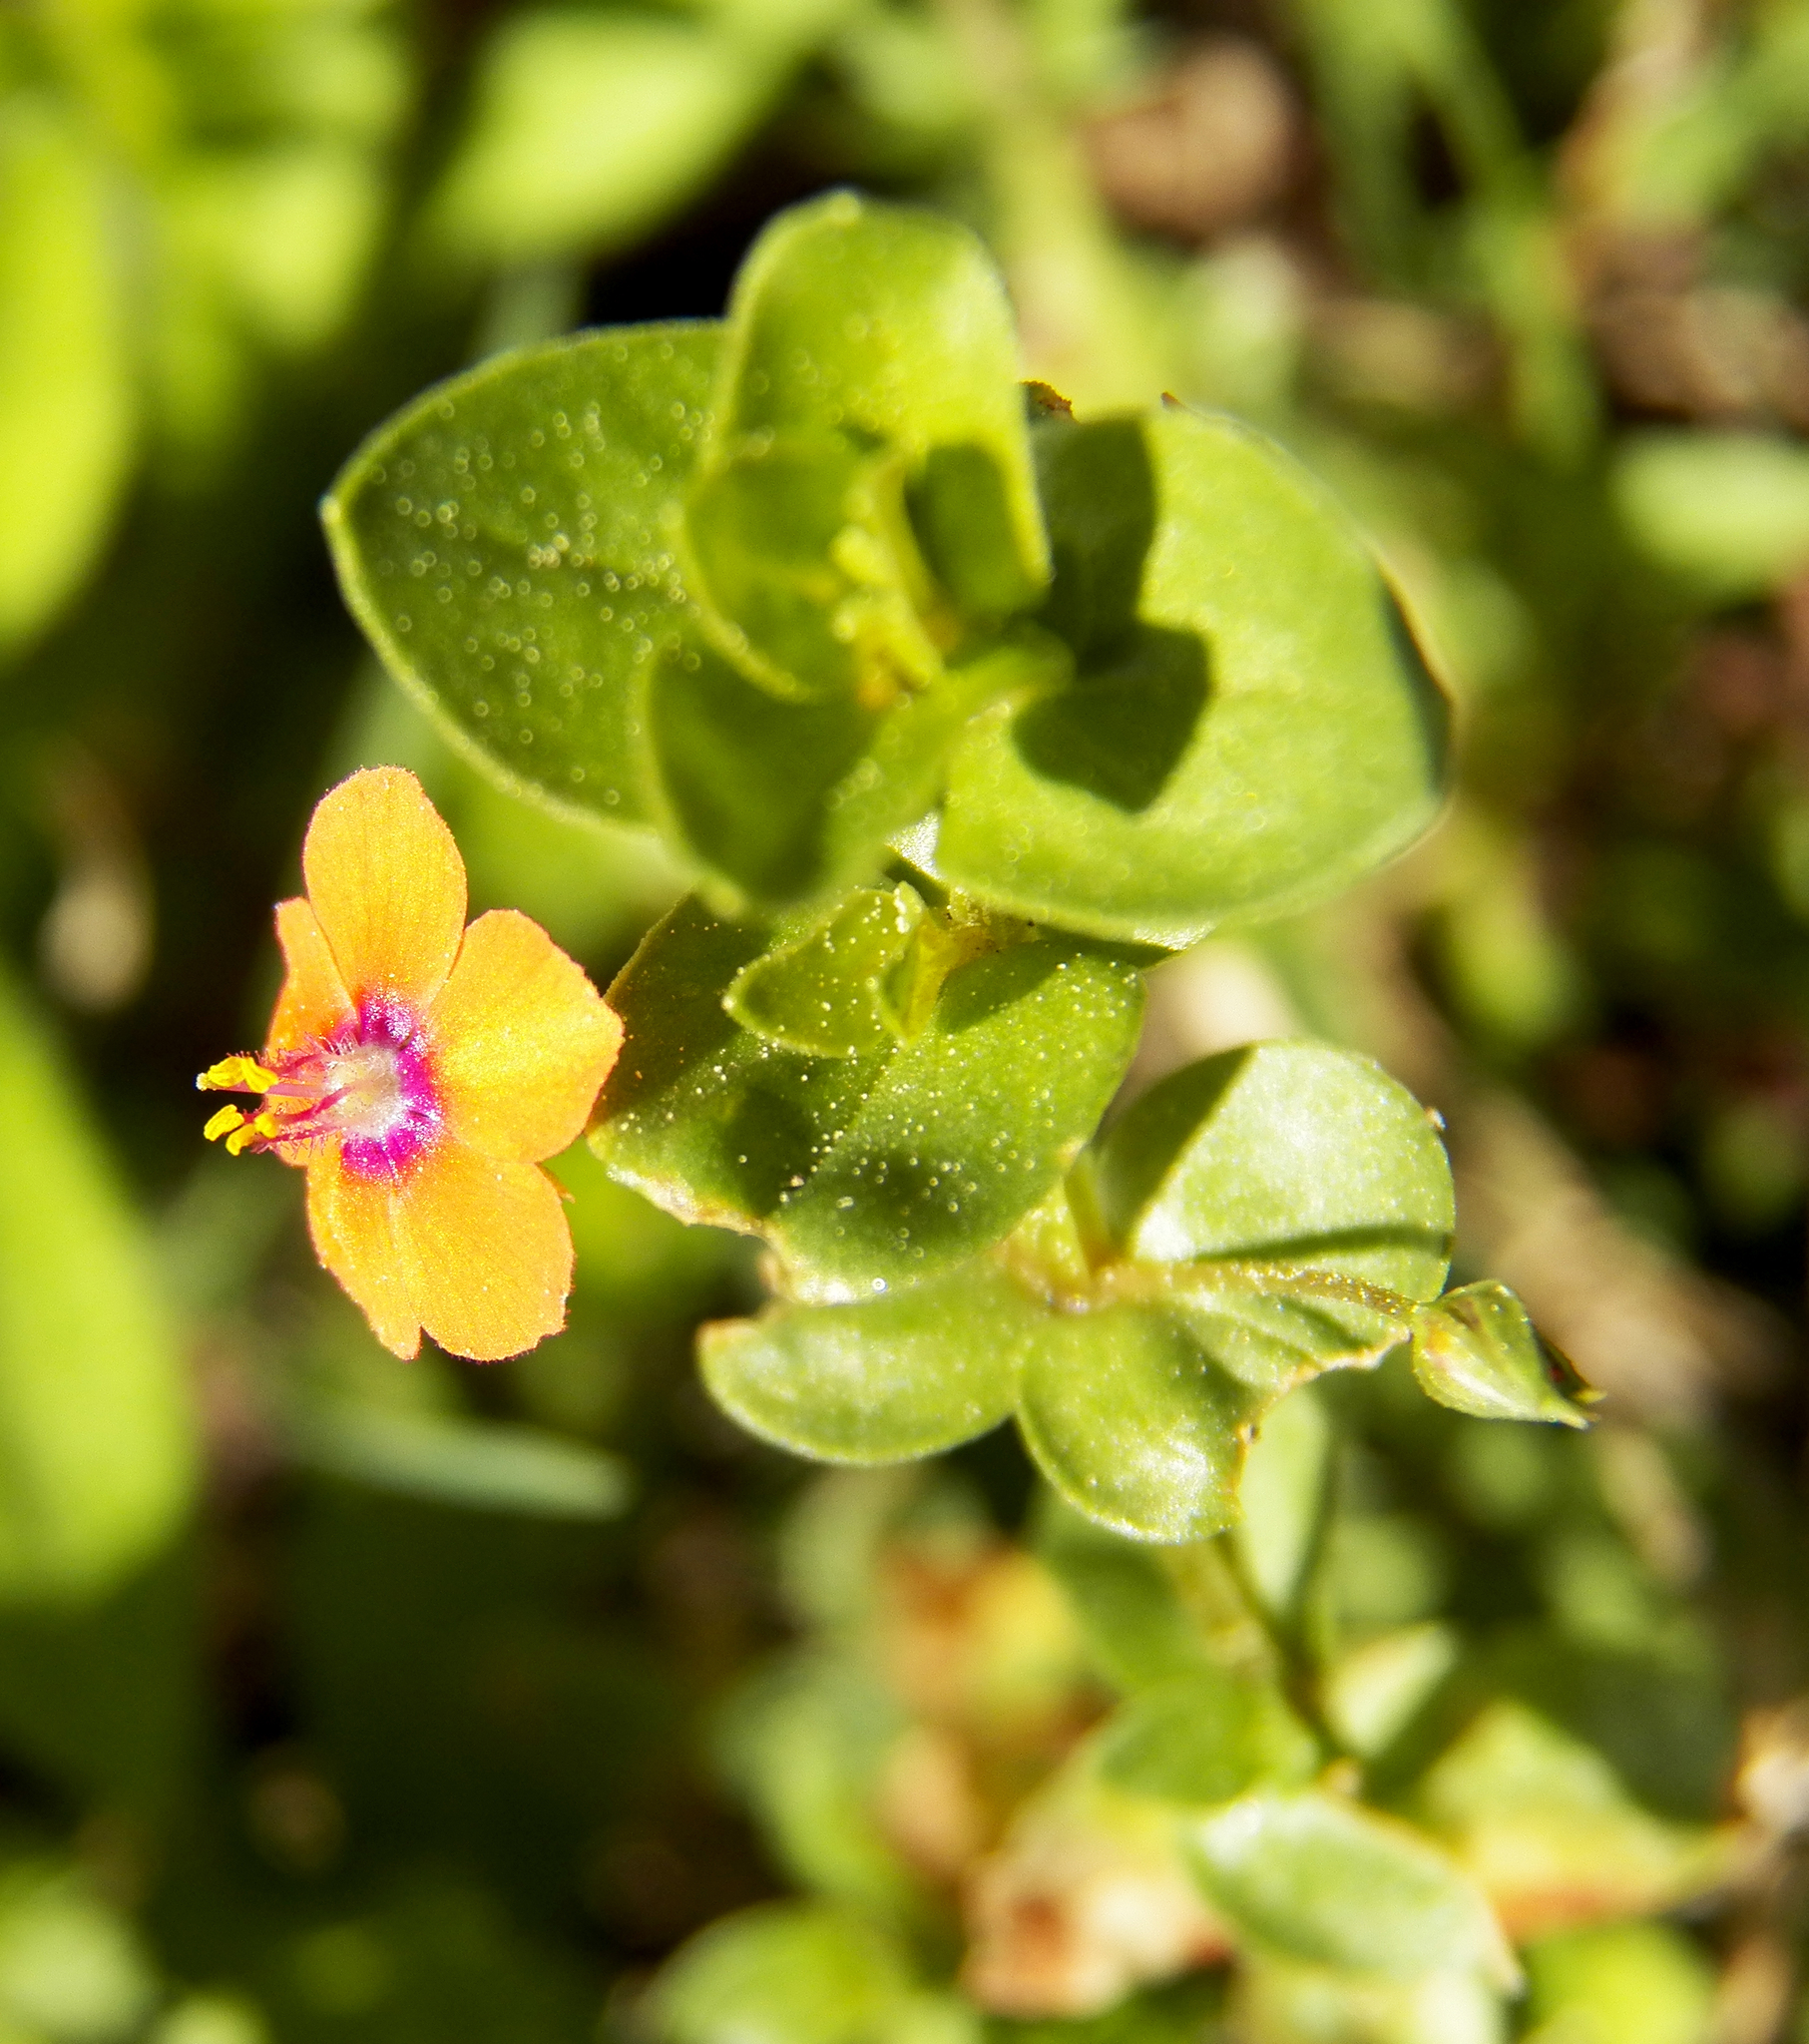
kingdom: Plantae
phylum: Tracheophyta
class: Magnoliopsida
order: Ericales
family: Primulaceae
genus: Lysimachia
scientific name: Lysimachia arvensis
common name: Scarlet pimpernel
